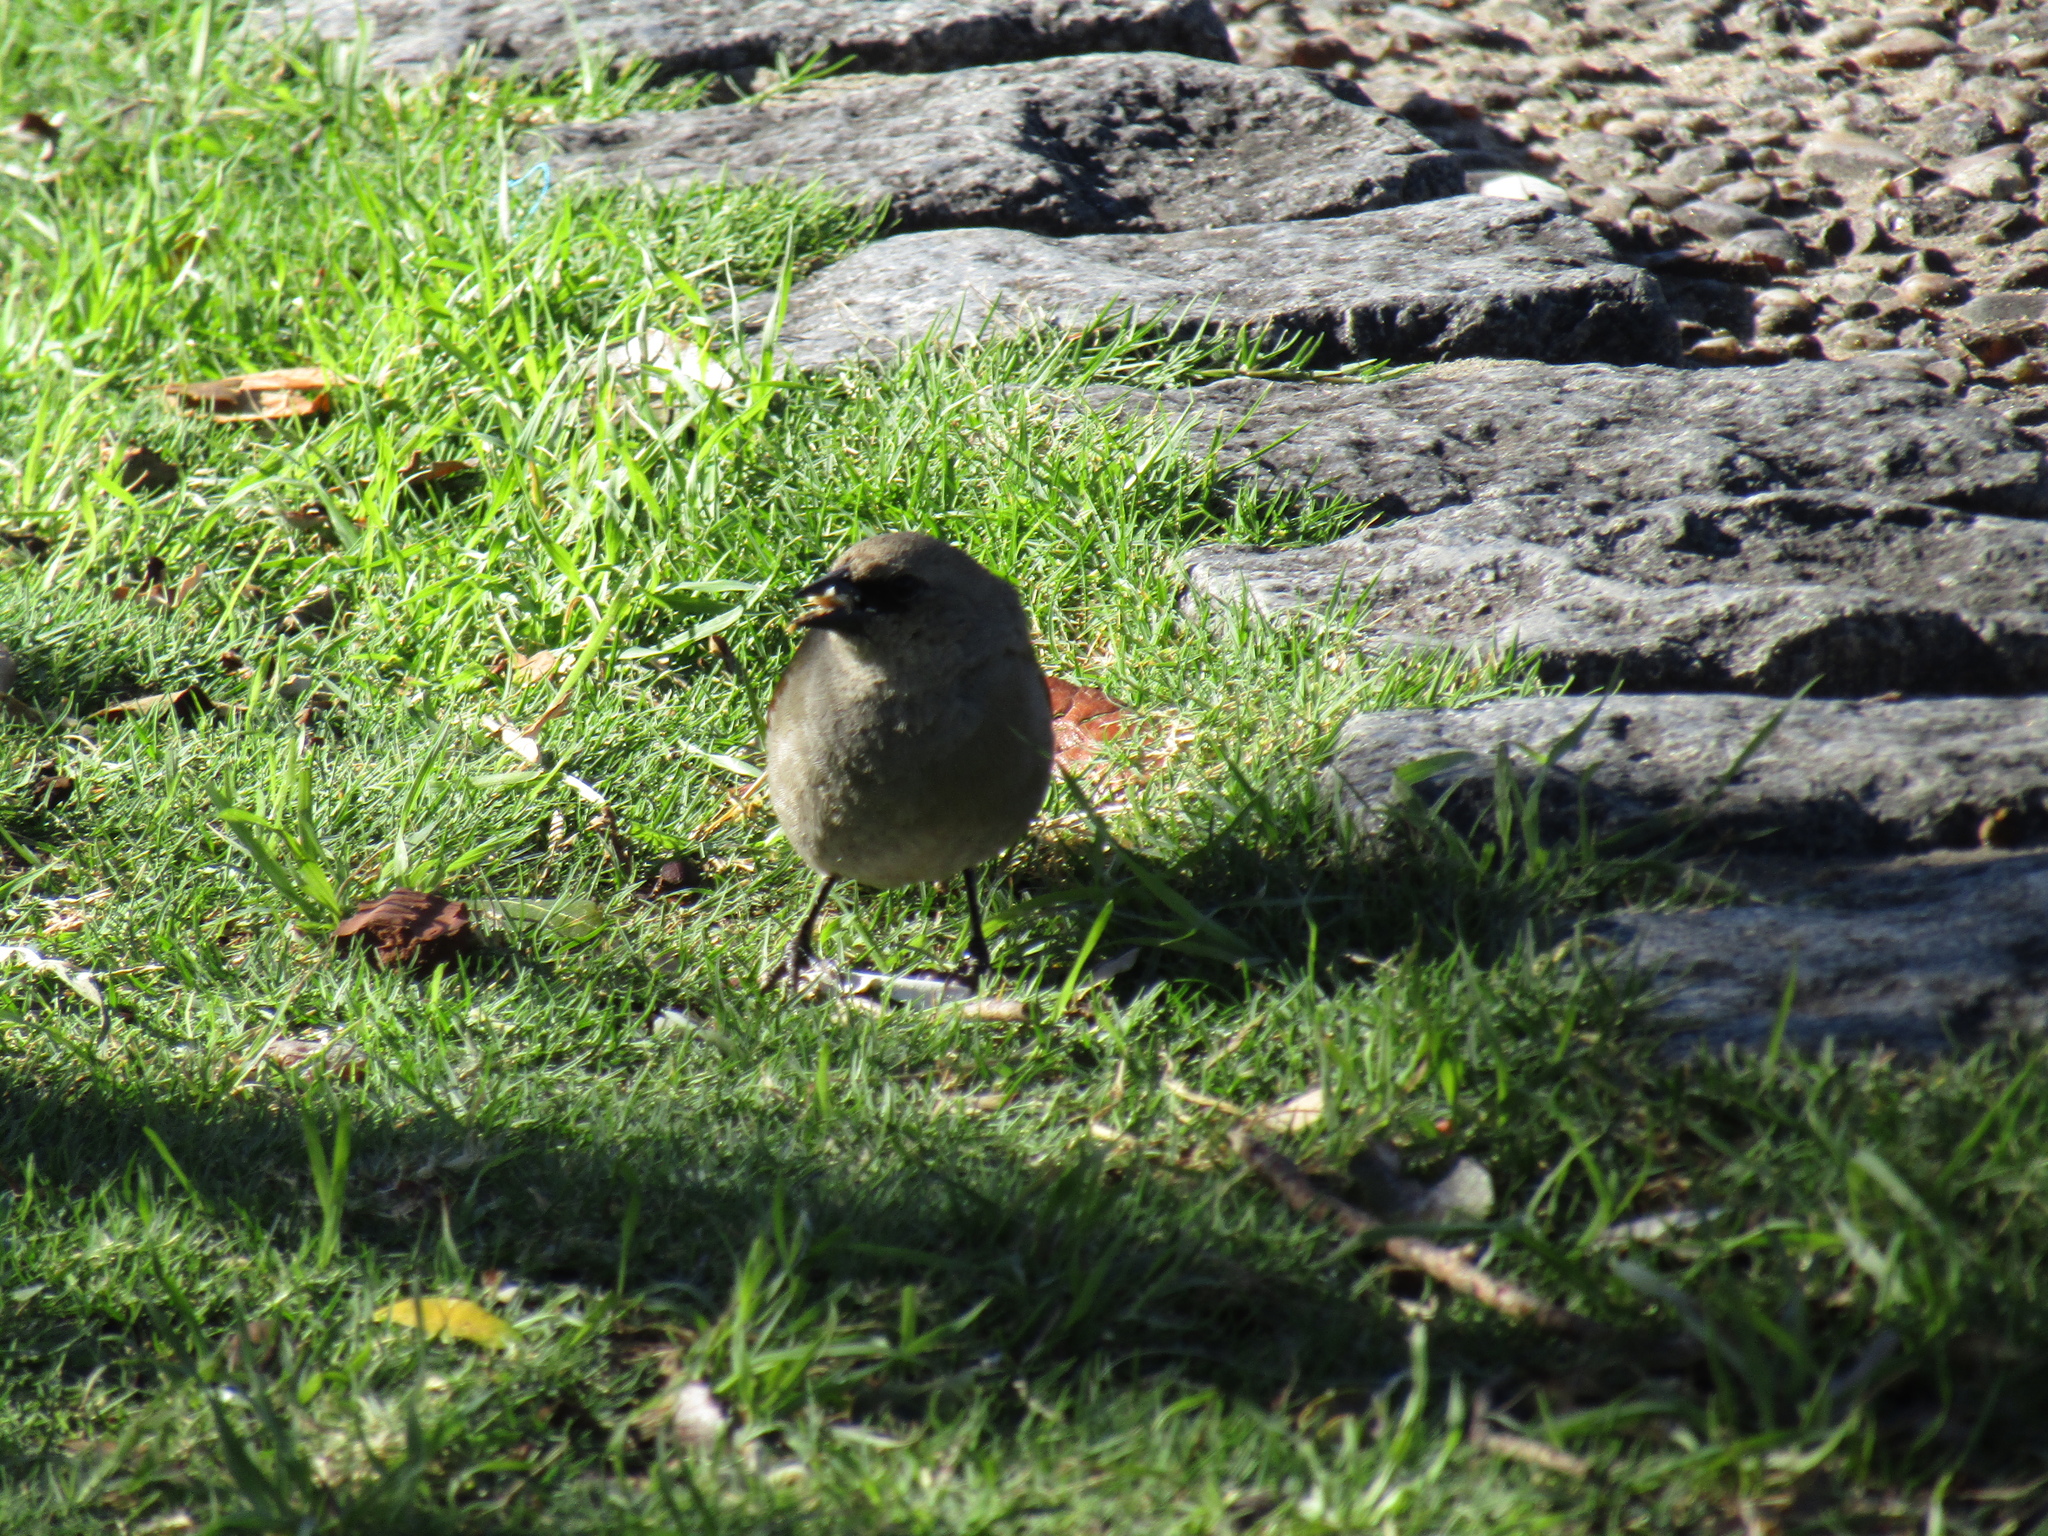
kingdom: Animalia
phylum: Chordata
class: Aves
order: Passeriformes
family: Icteridae
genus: Agelaioides
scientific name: Agelaioides badius
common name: Baywing
